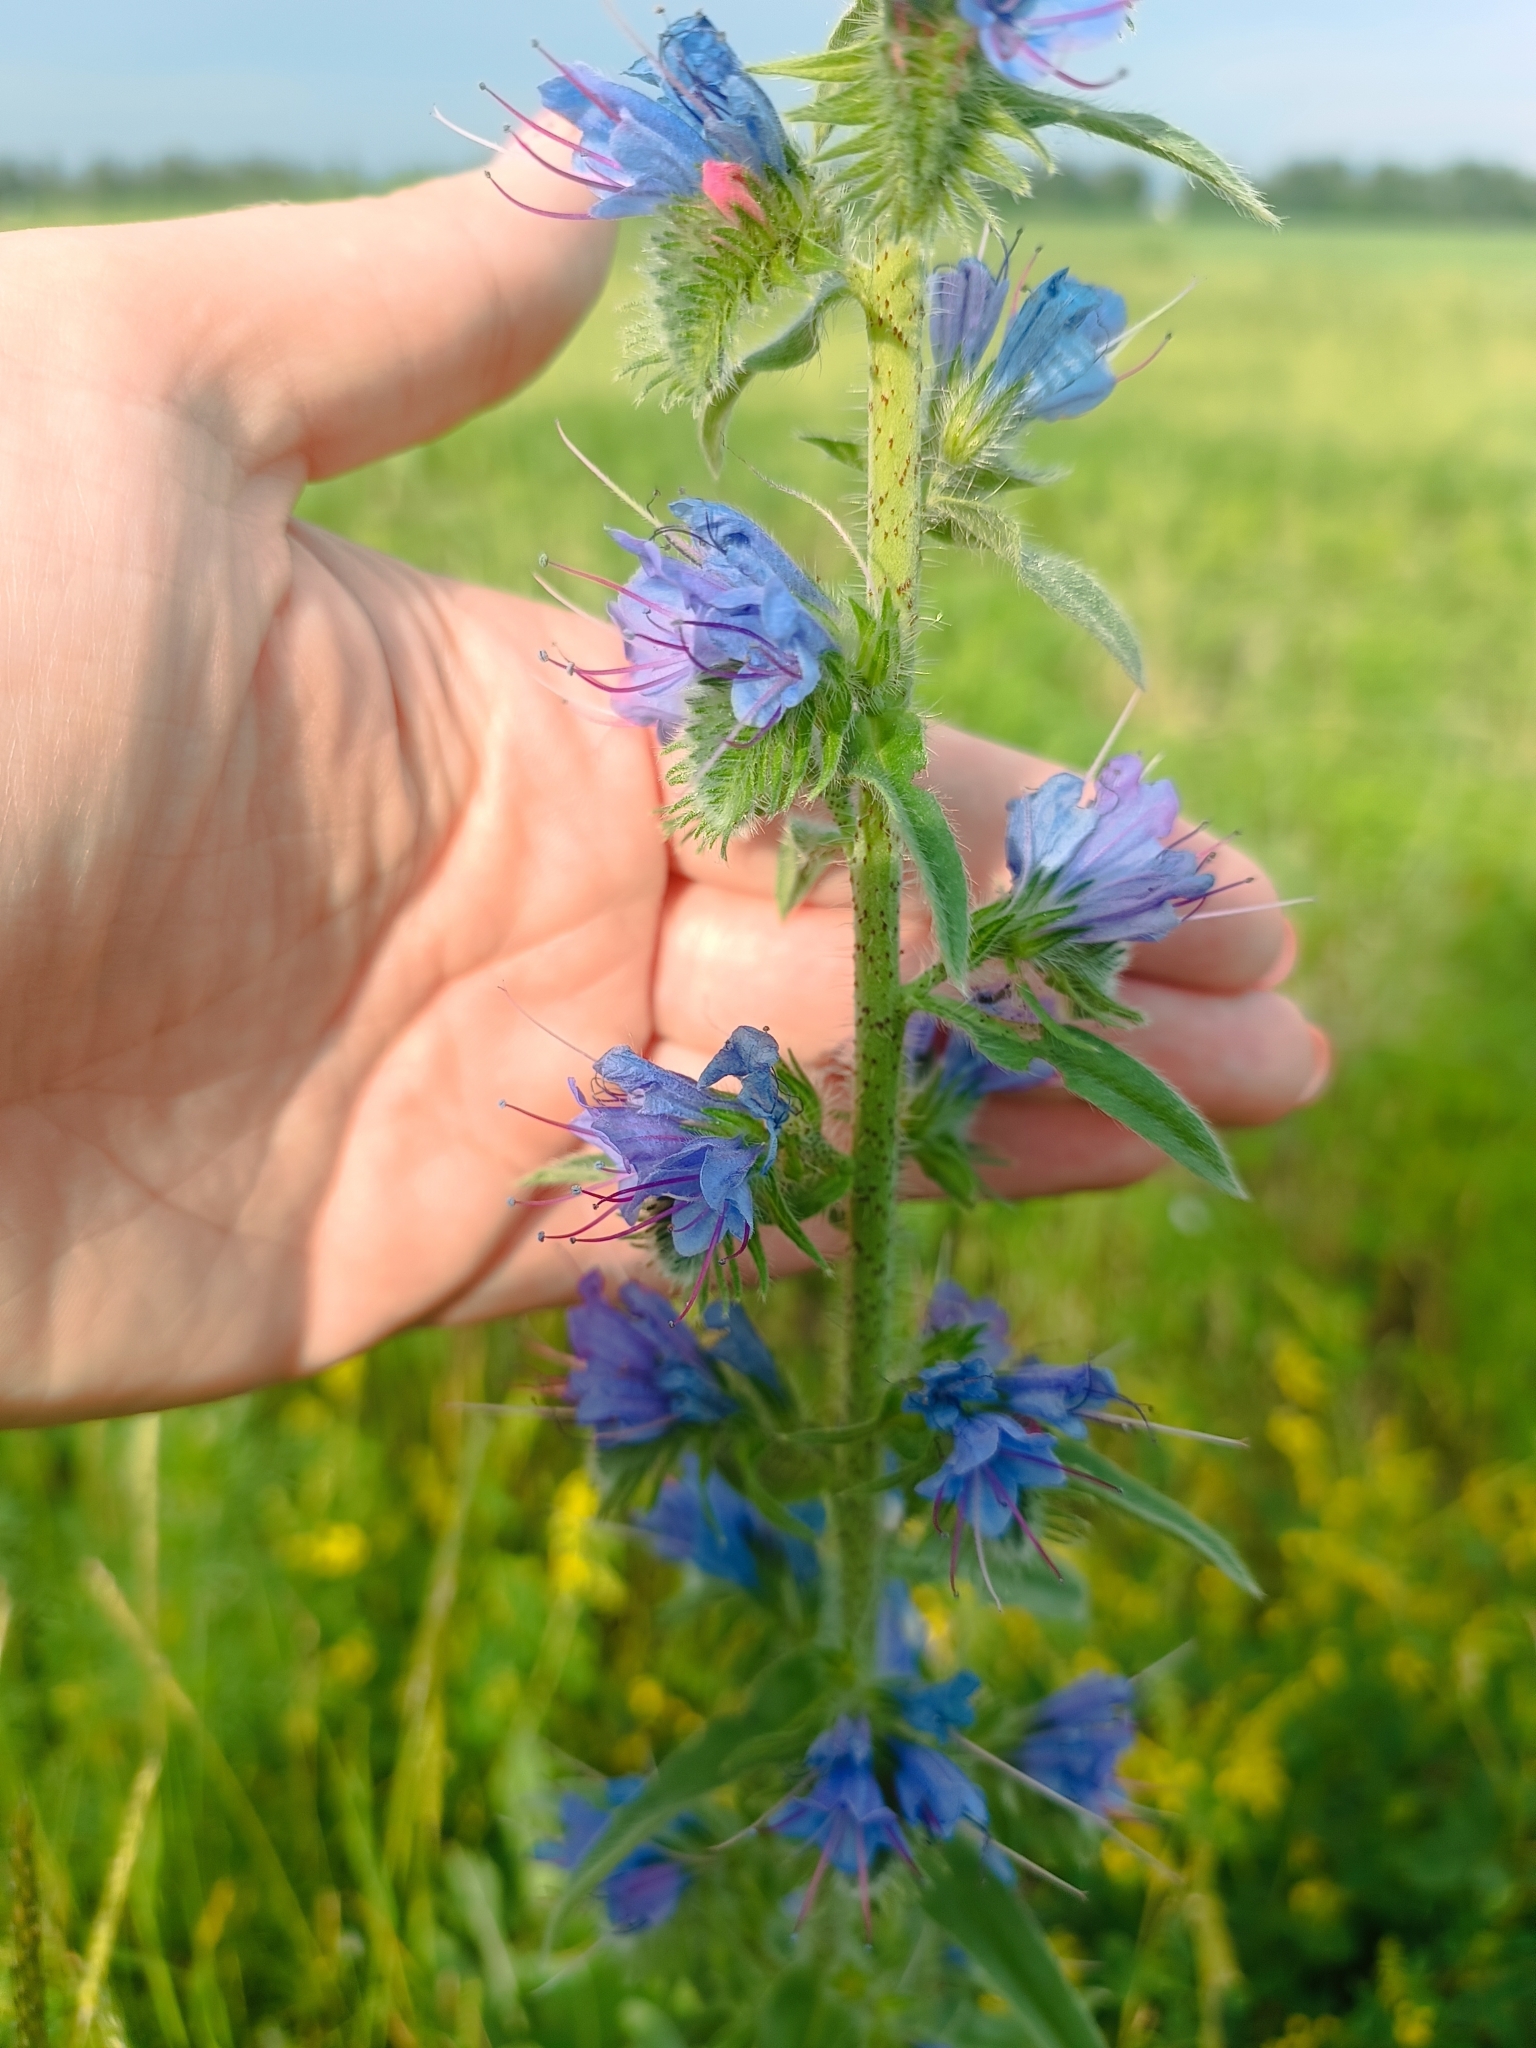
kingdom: Plantae
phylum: Tracheophyta
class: Magnoliopsida
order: Boraginales
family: Boraginaceae
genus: Echium
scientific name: Echium vulgare
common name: Common viper's bugloss
